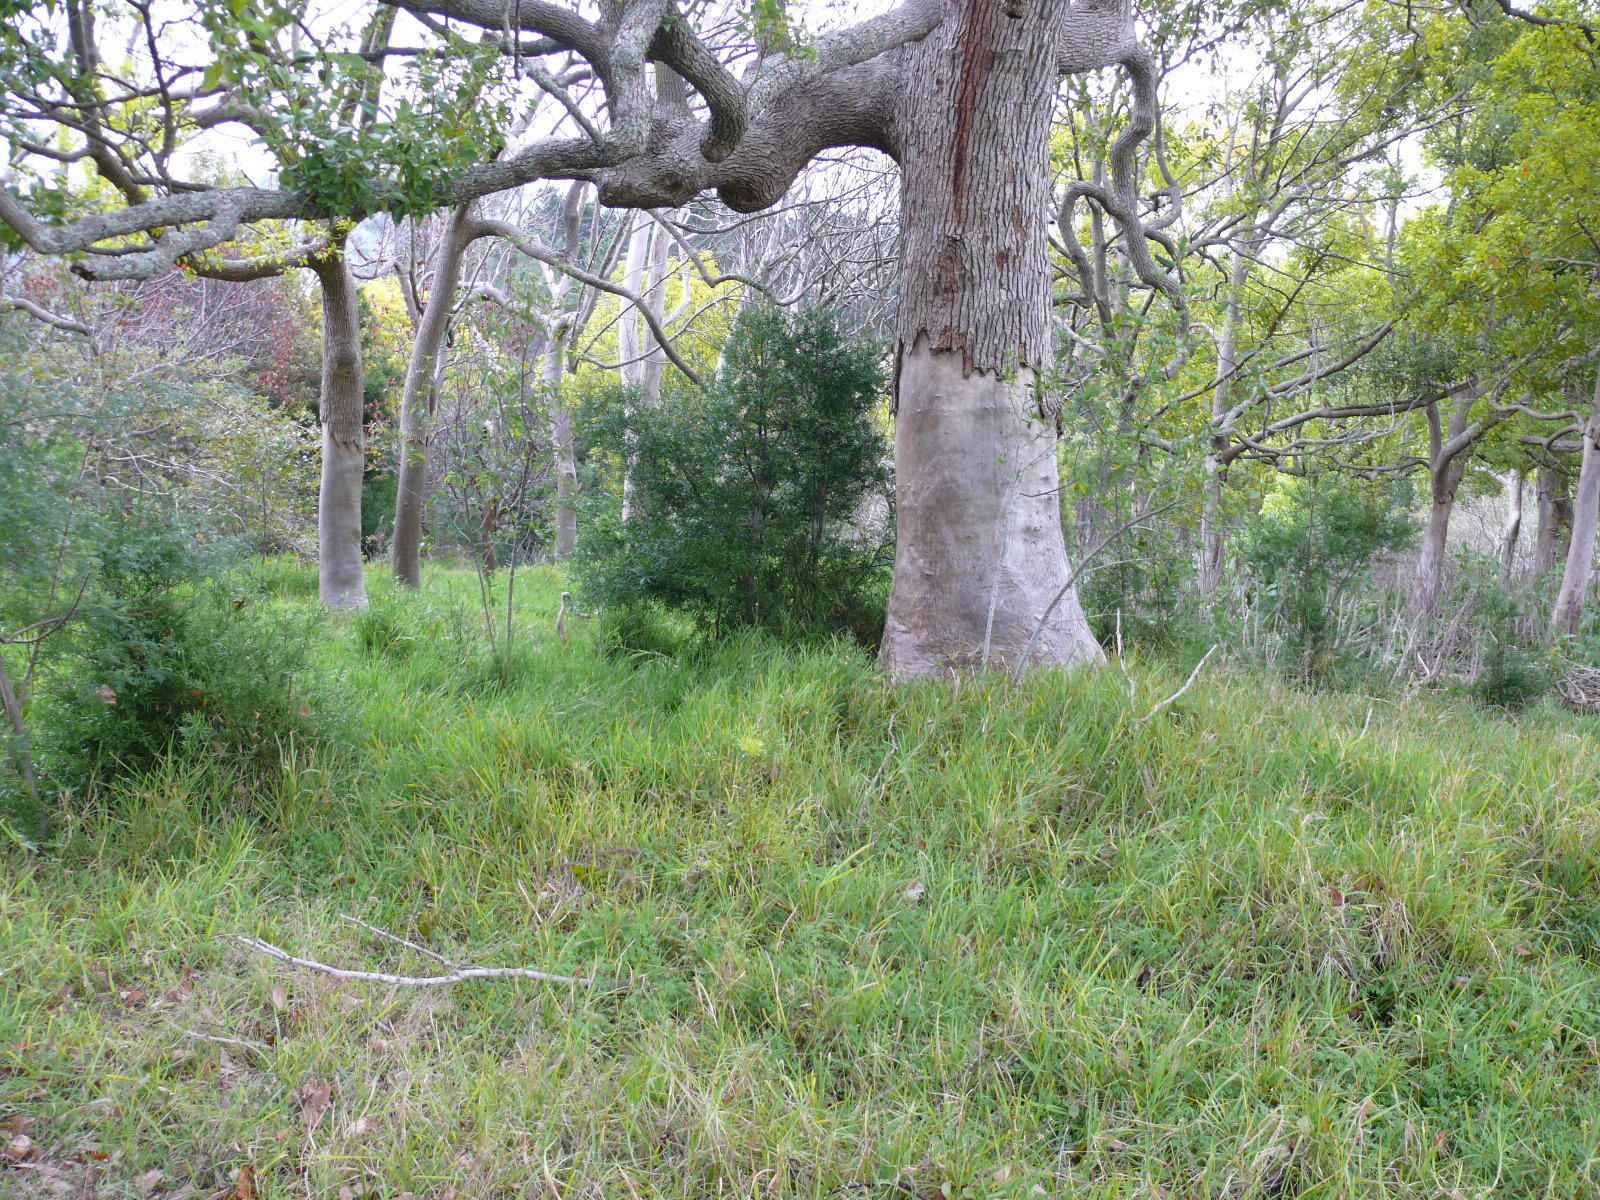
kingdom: Plantae
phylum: Tracheophyta
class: Pinopsida
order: Pinales
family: Podocarpaceae
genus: Afrocarpus
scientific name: Afrocarpus falcatus
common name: Bastard yellowwood
